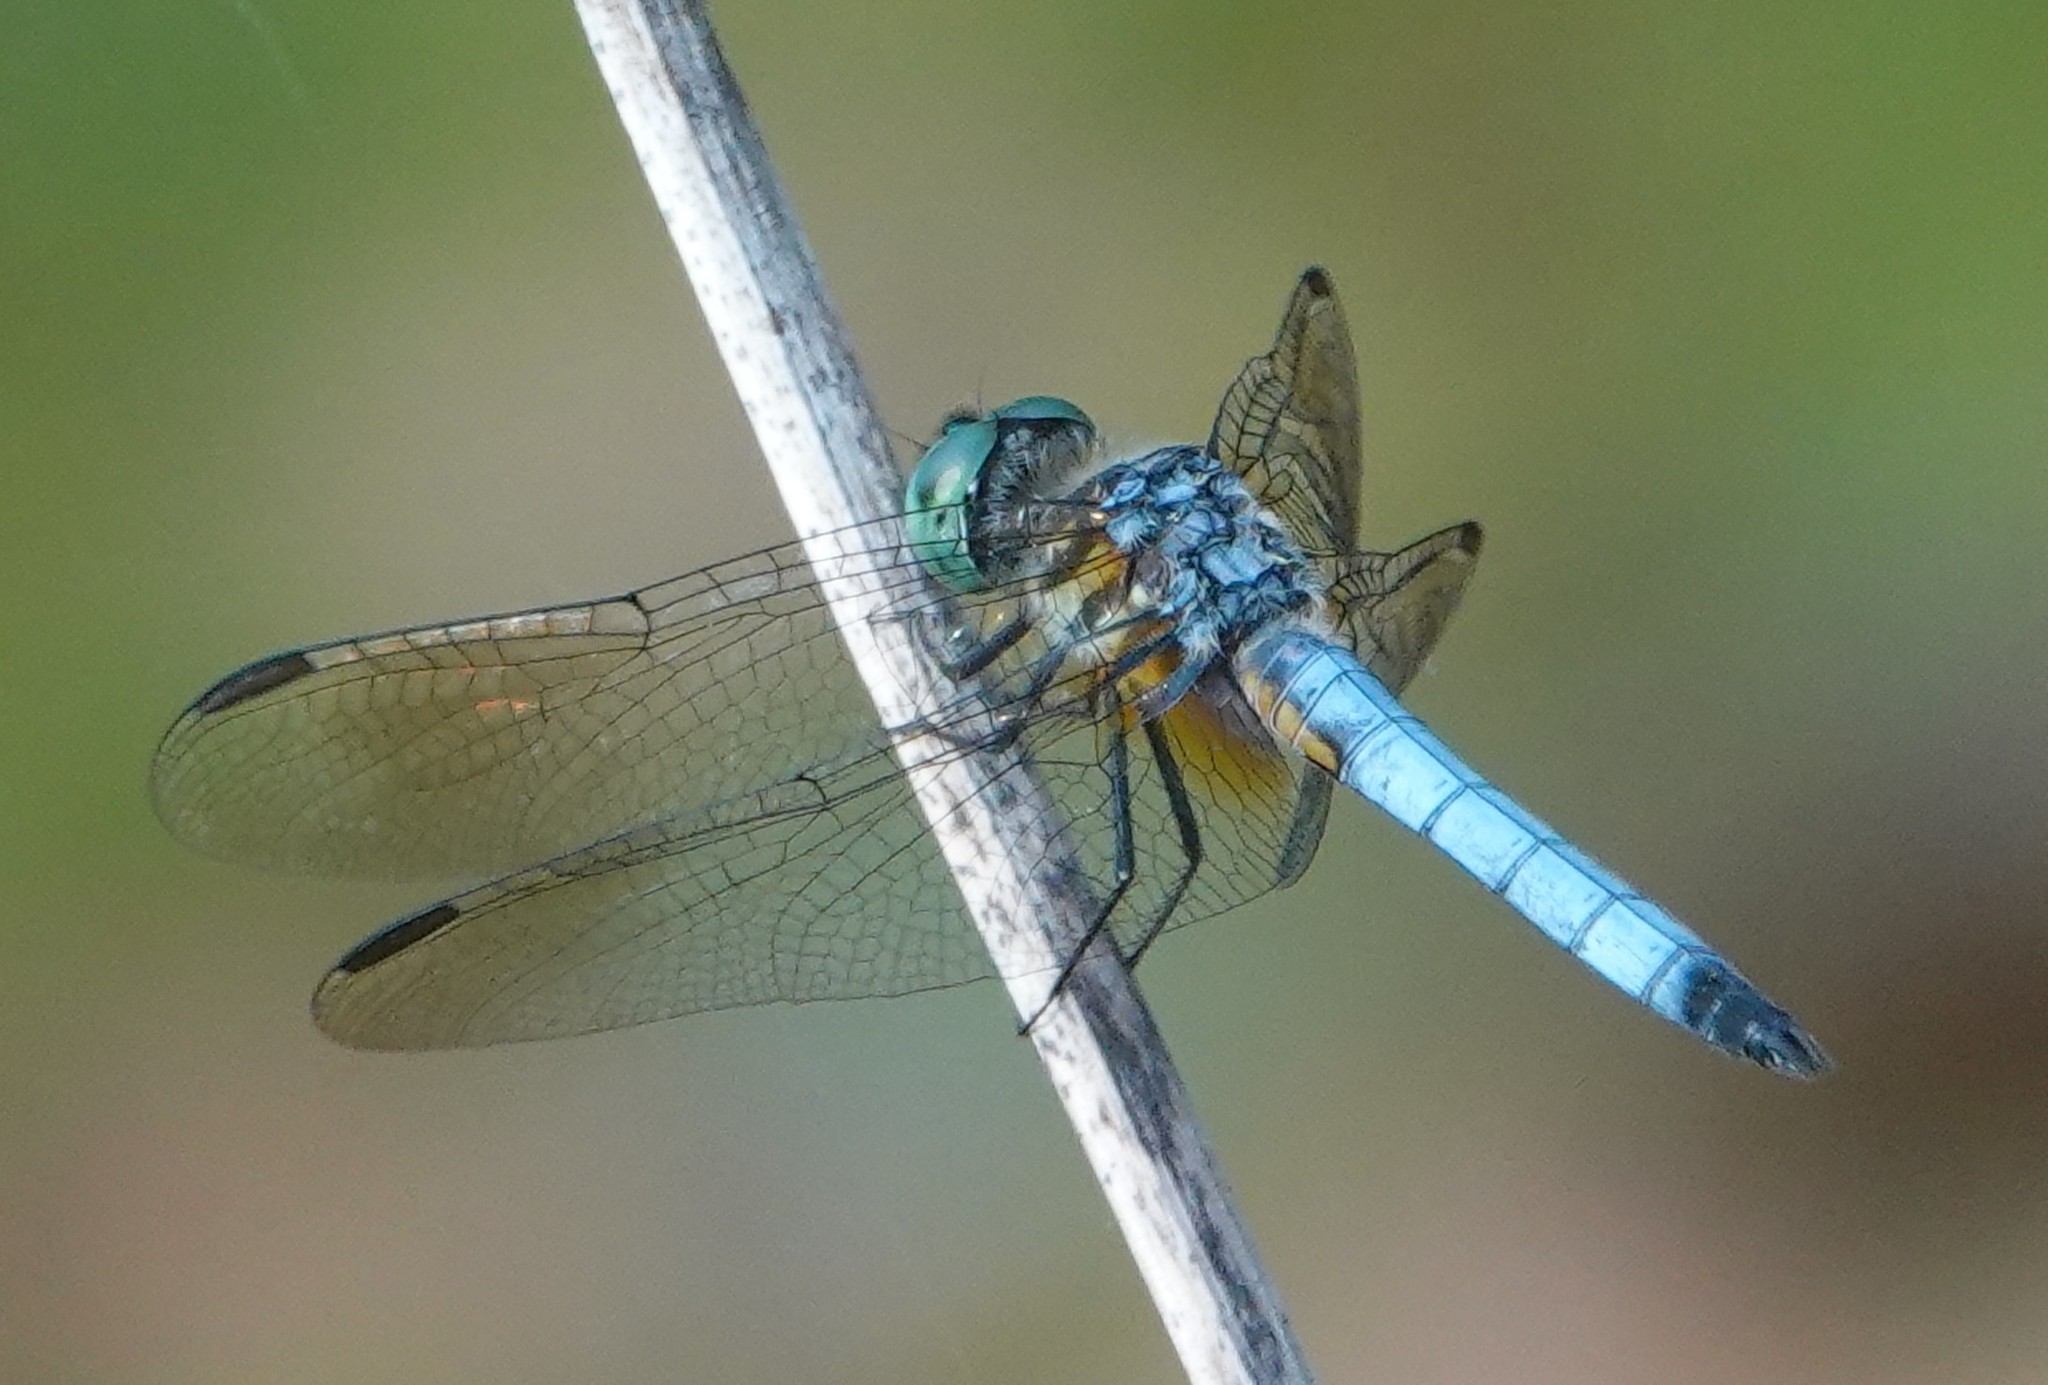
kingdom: Animalia
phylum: Arthropoda
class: Insecta
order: Odonata
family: Libellulidae
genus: Pachydiplax
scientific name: Pachydiplax longipennis
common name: Blue dasher
